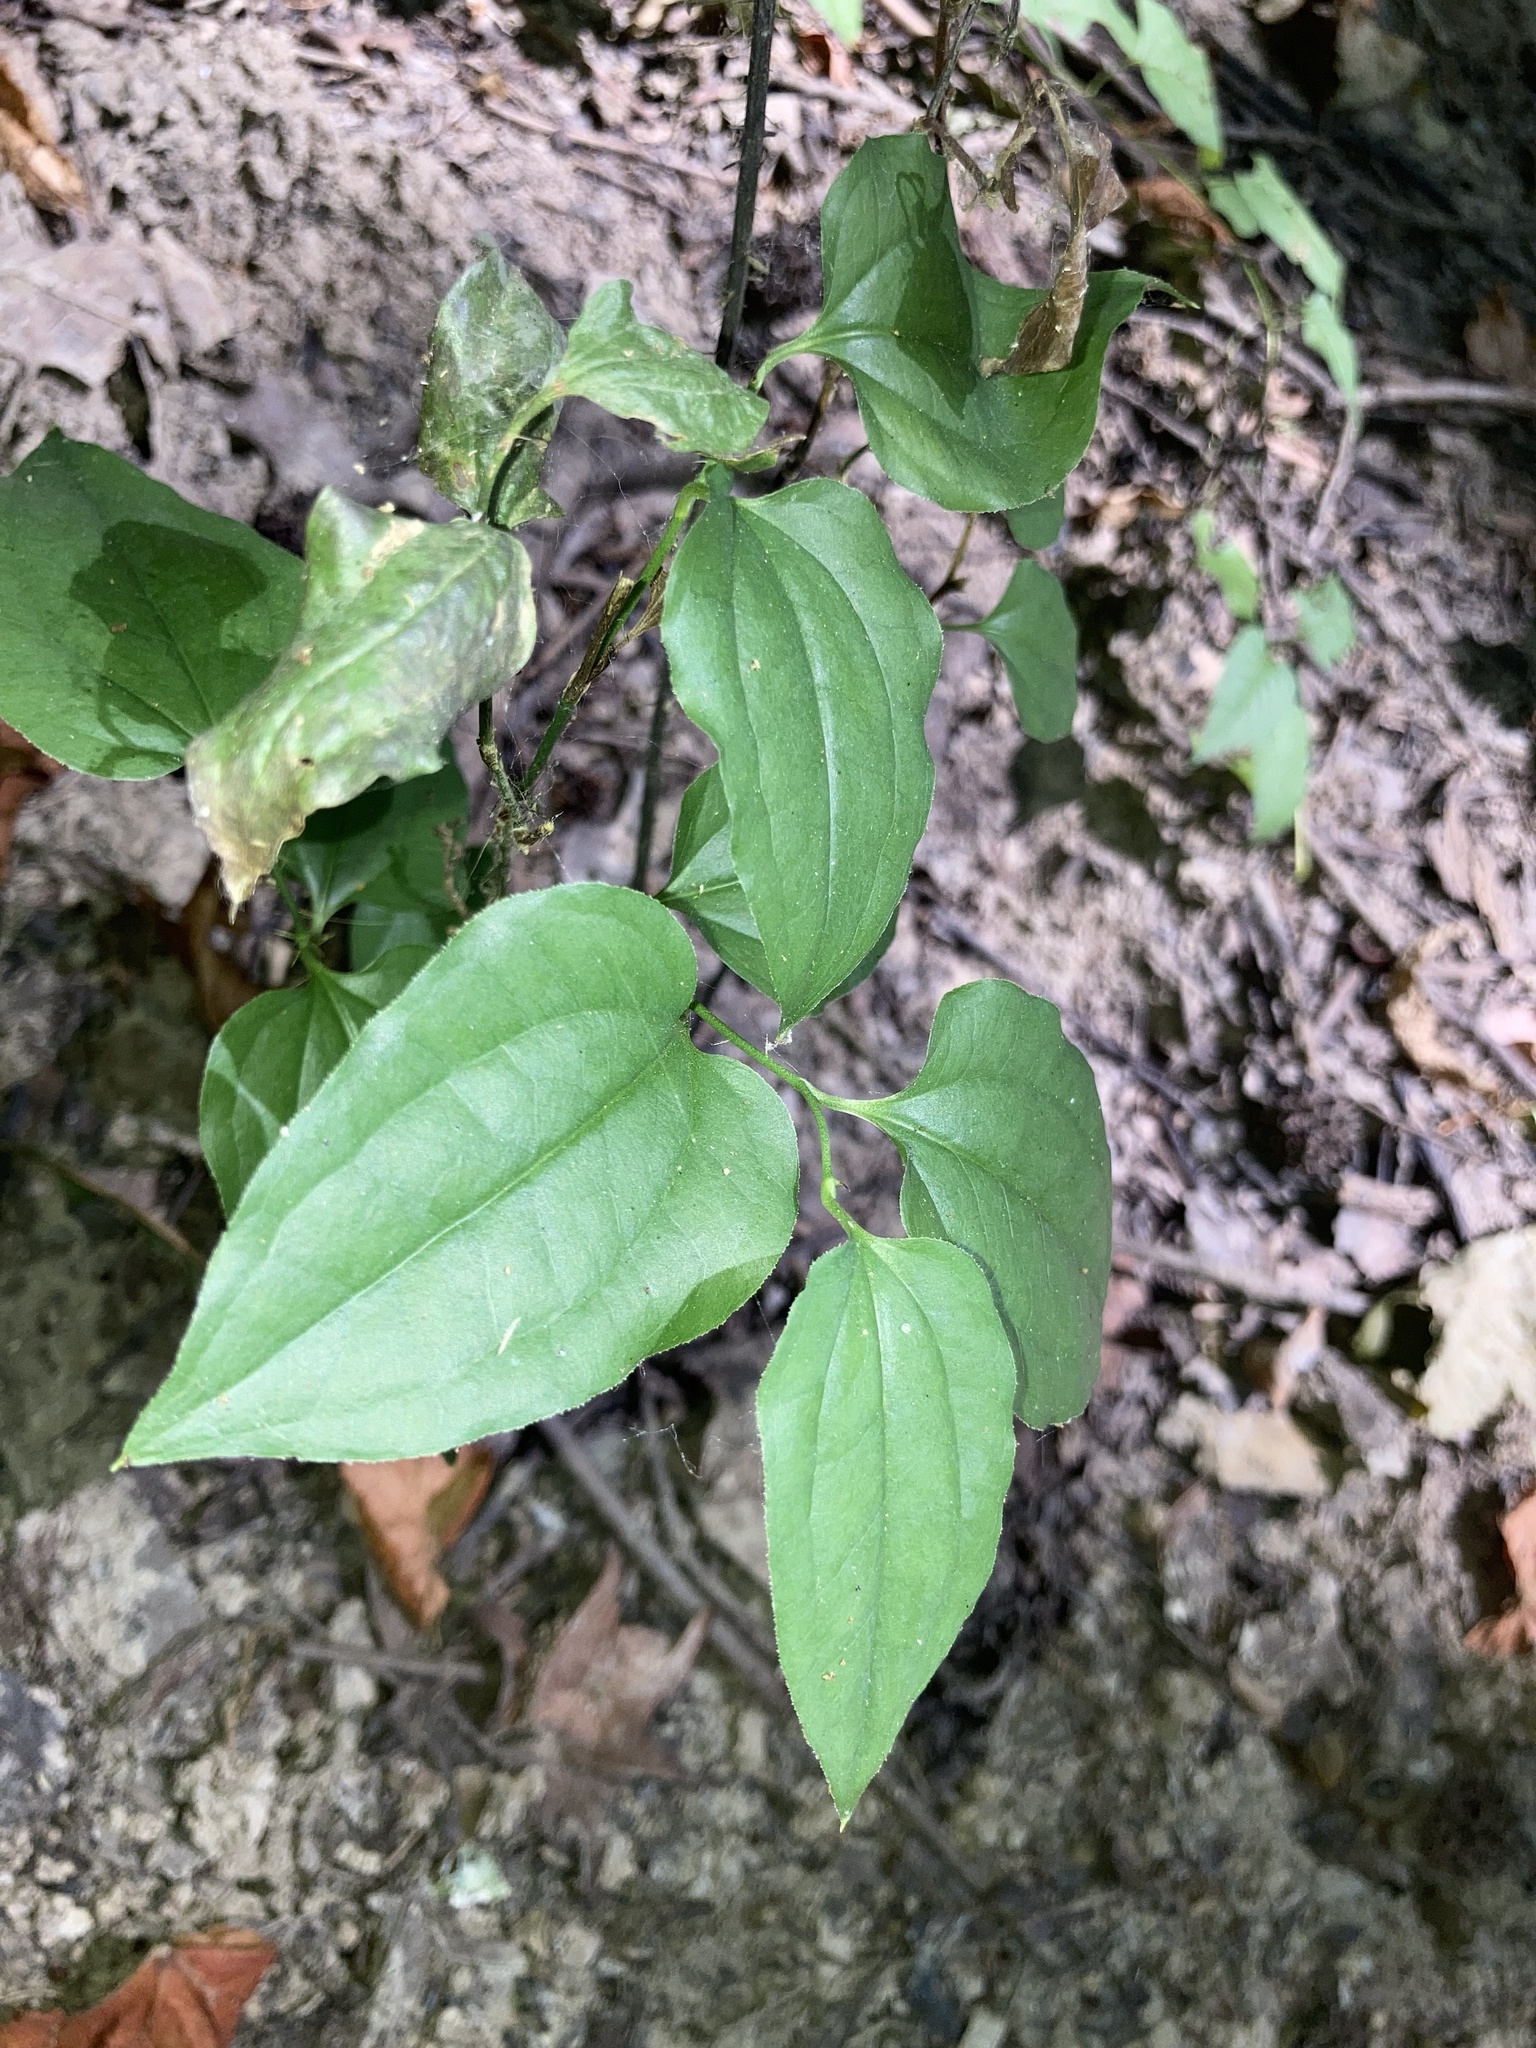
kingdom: Plantae
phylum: Tracheophyta
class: Liliopsida
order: Liliales
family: Smilacaceae
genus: Smilax
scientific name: Smilax tamnoides
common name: Hellfetter
